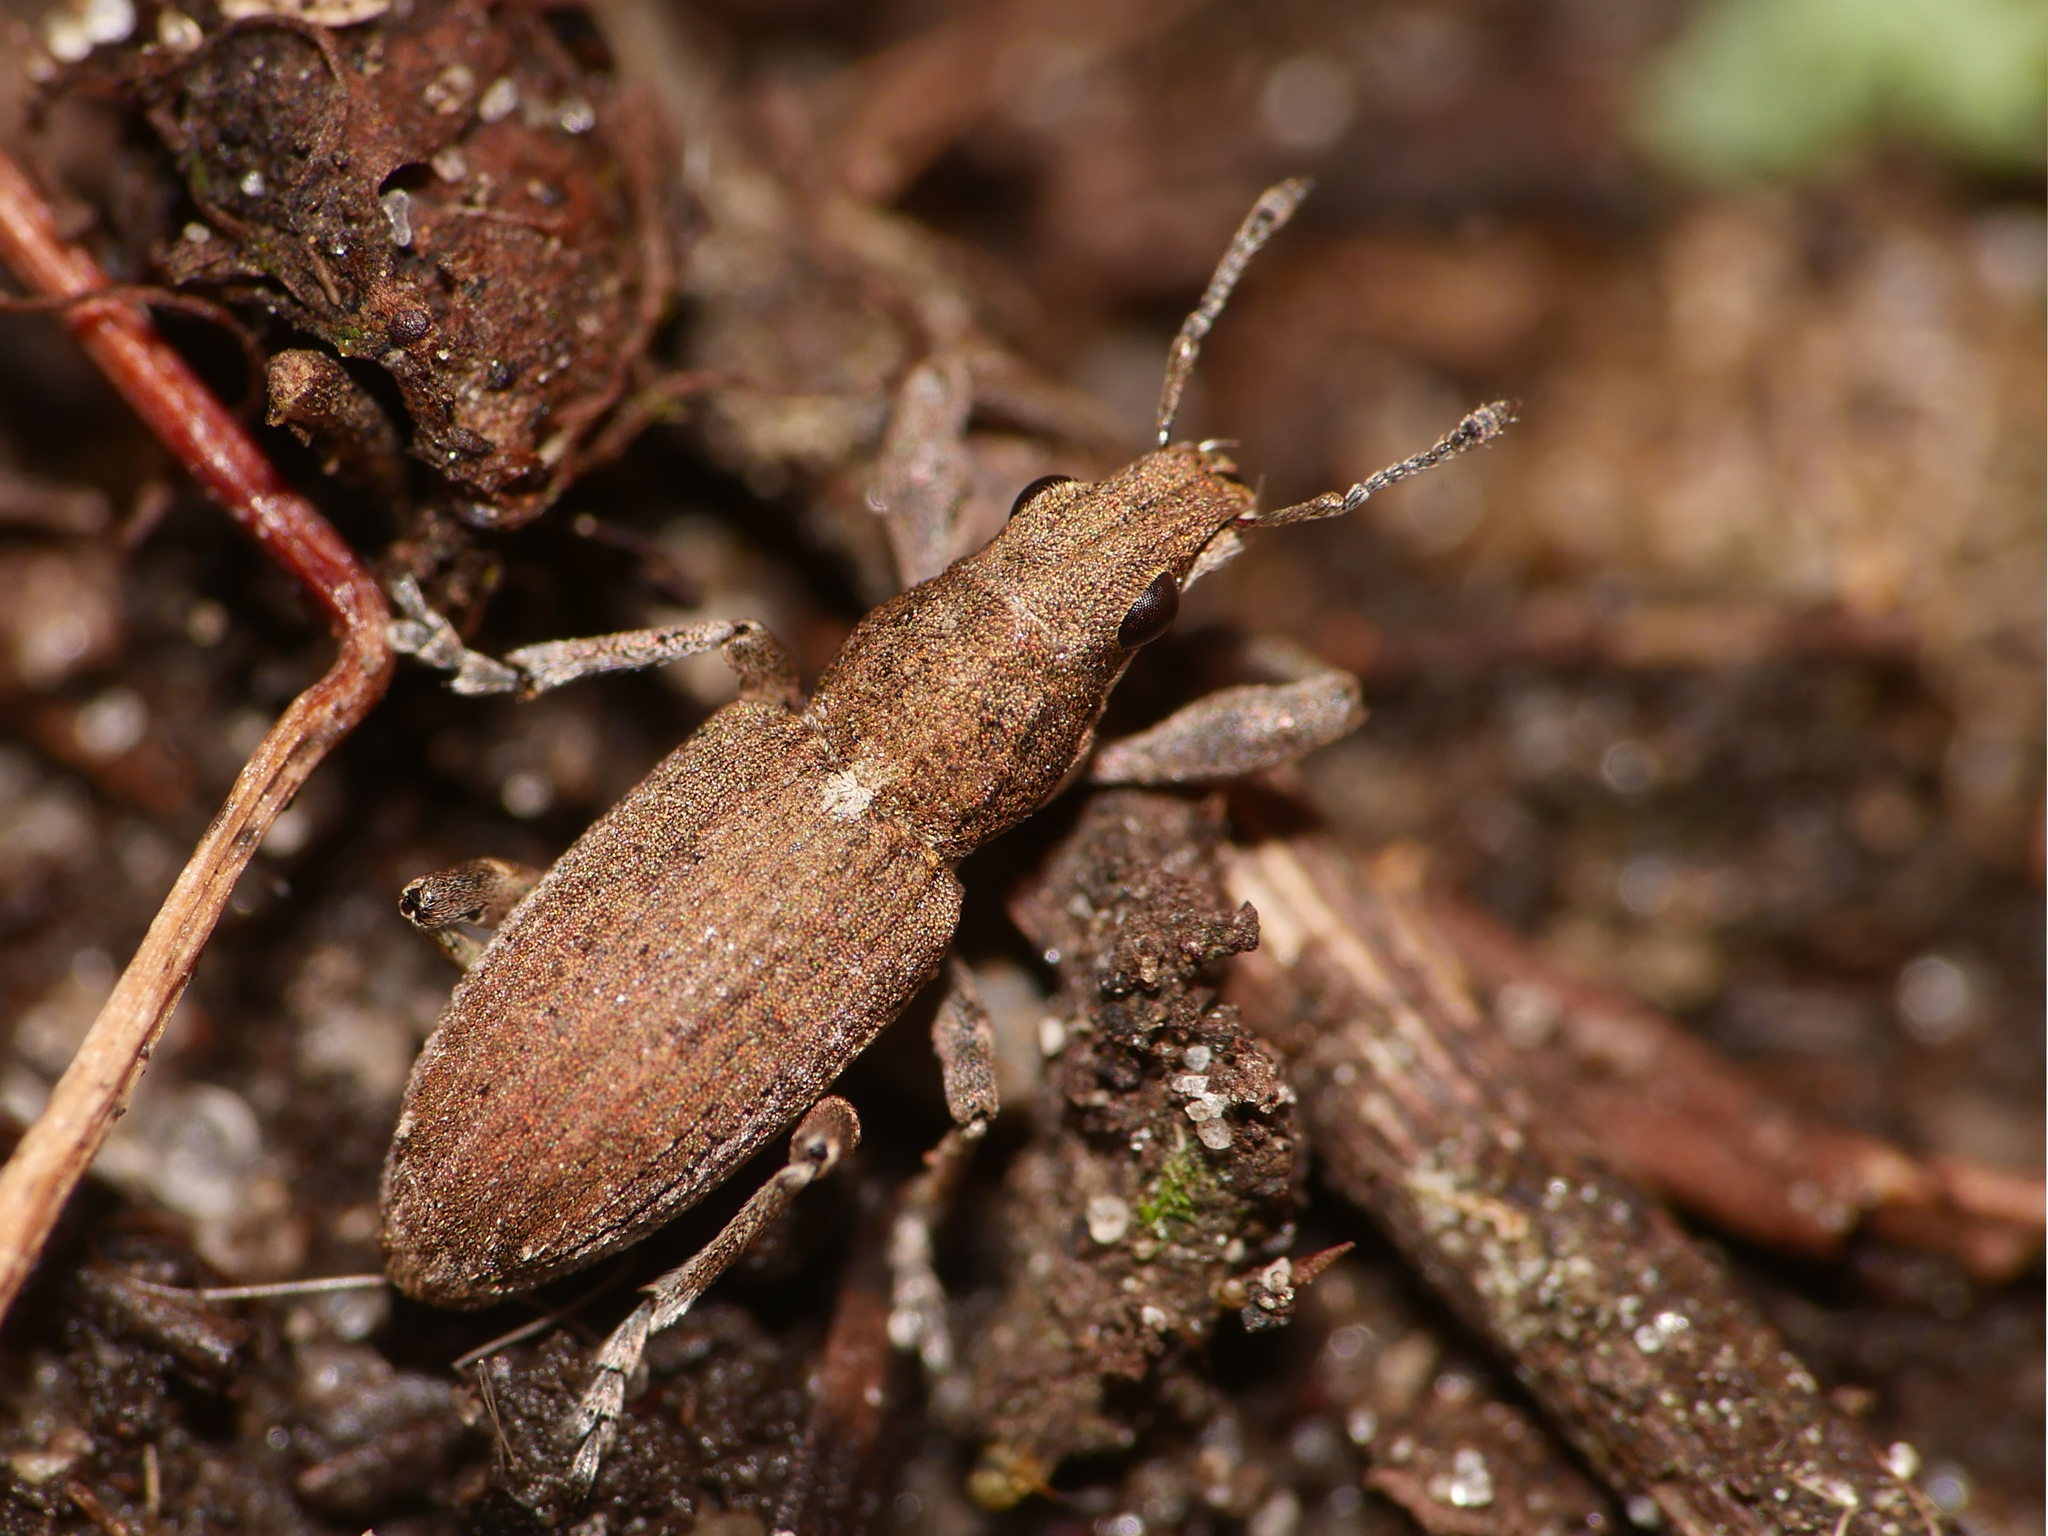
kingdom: Animalia
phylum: Arthropoda
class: Insecta
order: Coleoptera
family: Curculionidae
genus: Charagmus
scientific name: Charagmus griseus
